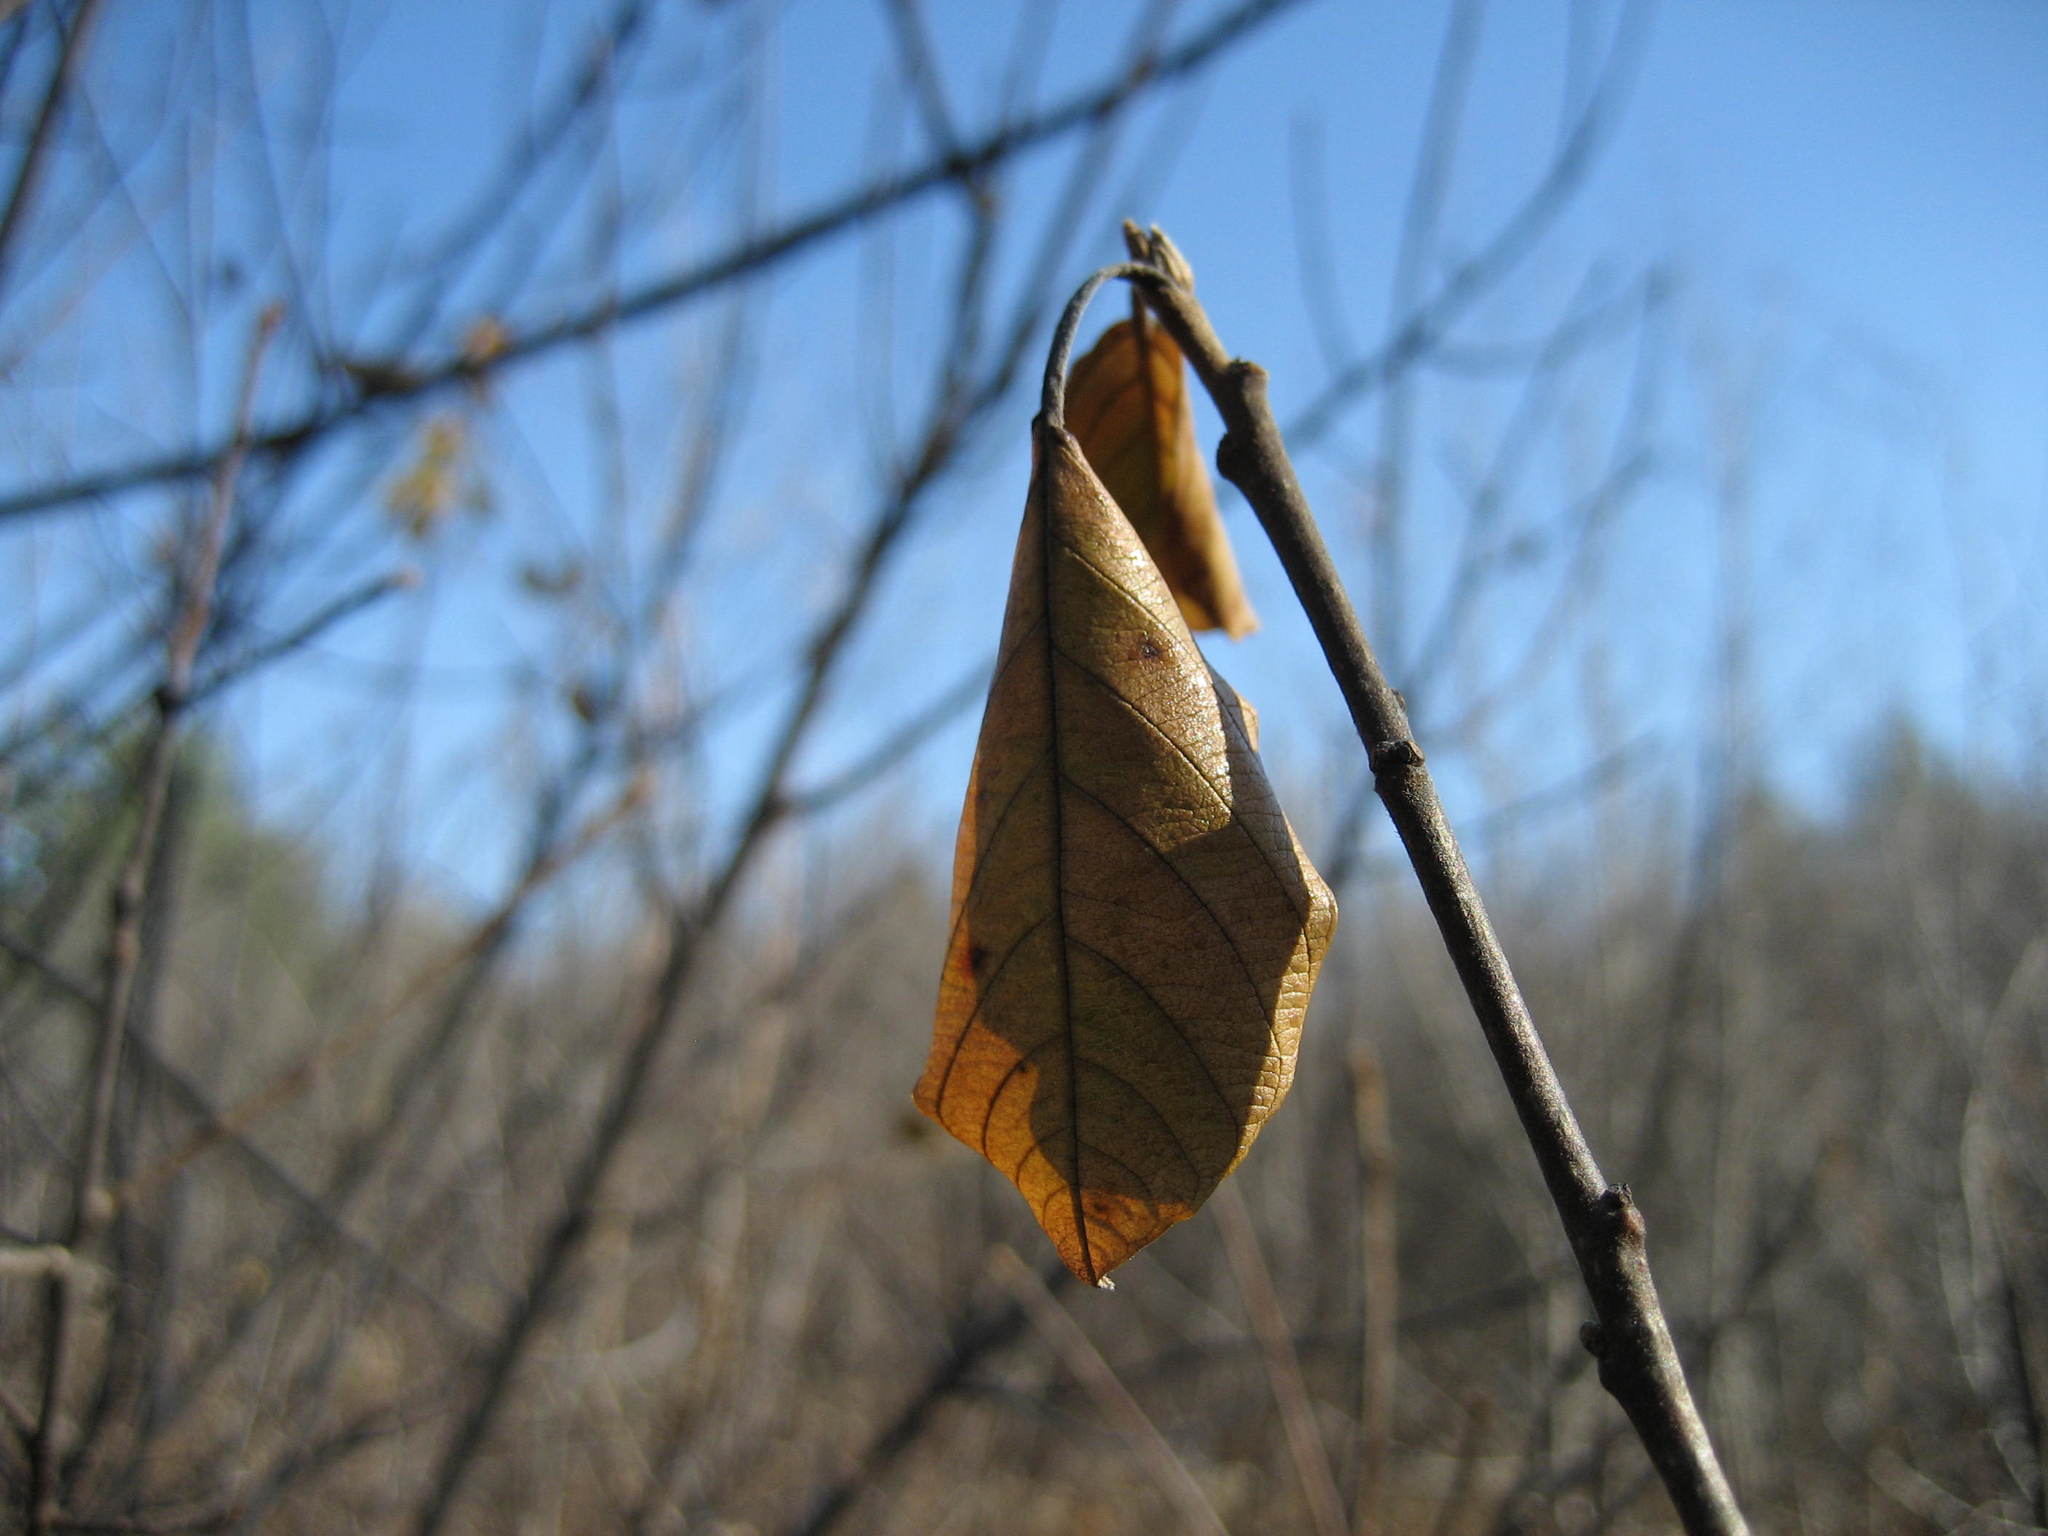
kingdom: Plantae
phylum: Tracheophyta
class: Magnoliopsida
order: Rosales
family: Rhamnaceae
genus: Frangula
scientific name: Frangula alnus
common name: Alder buckthorn
